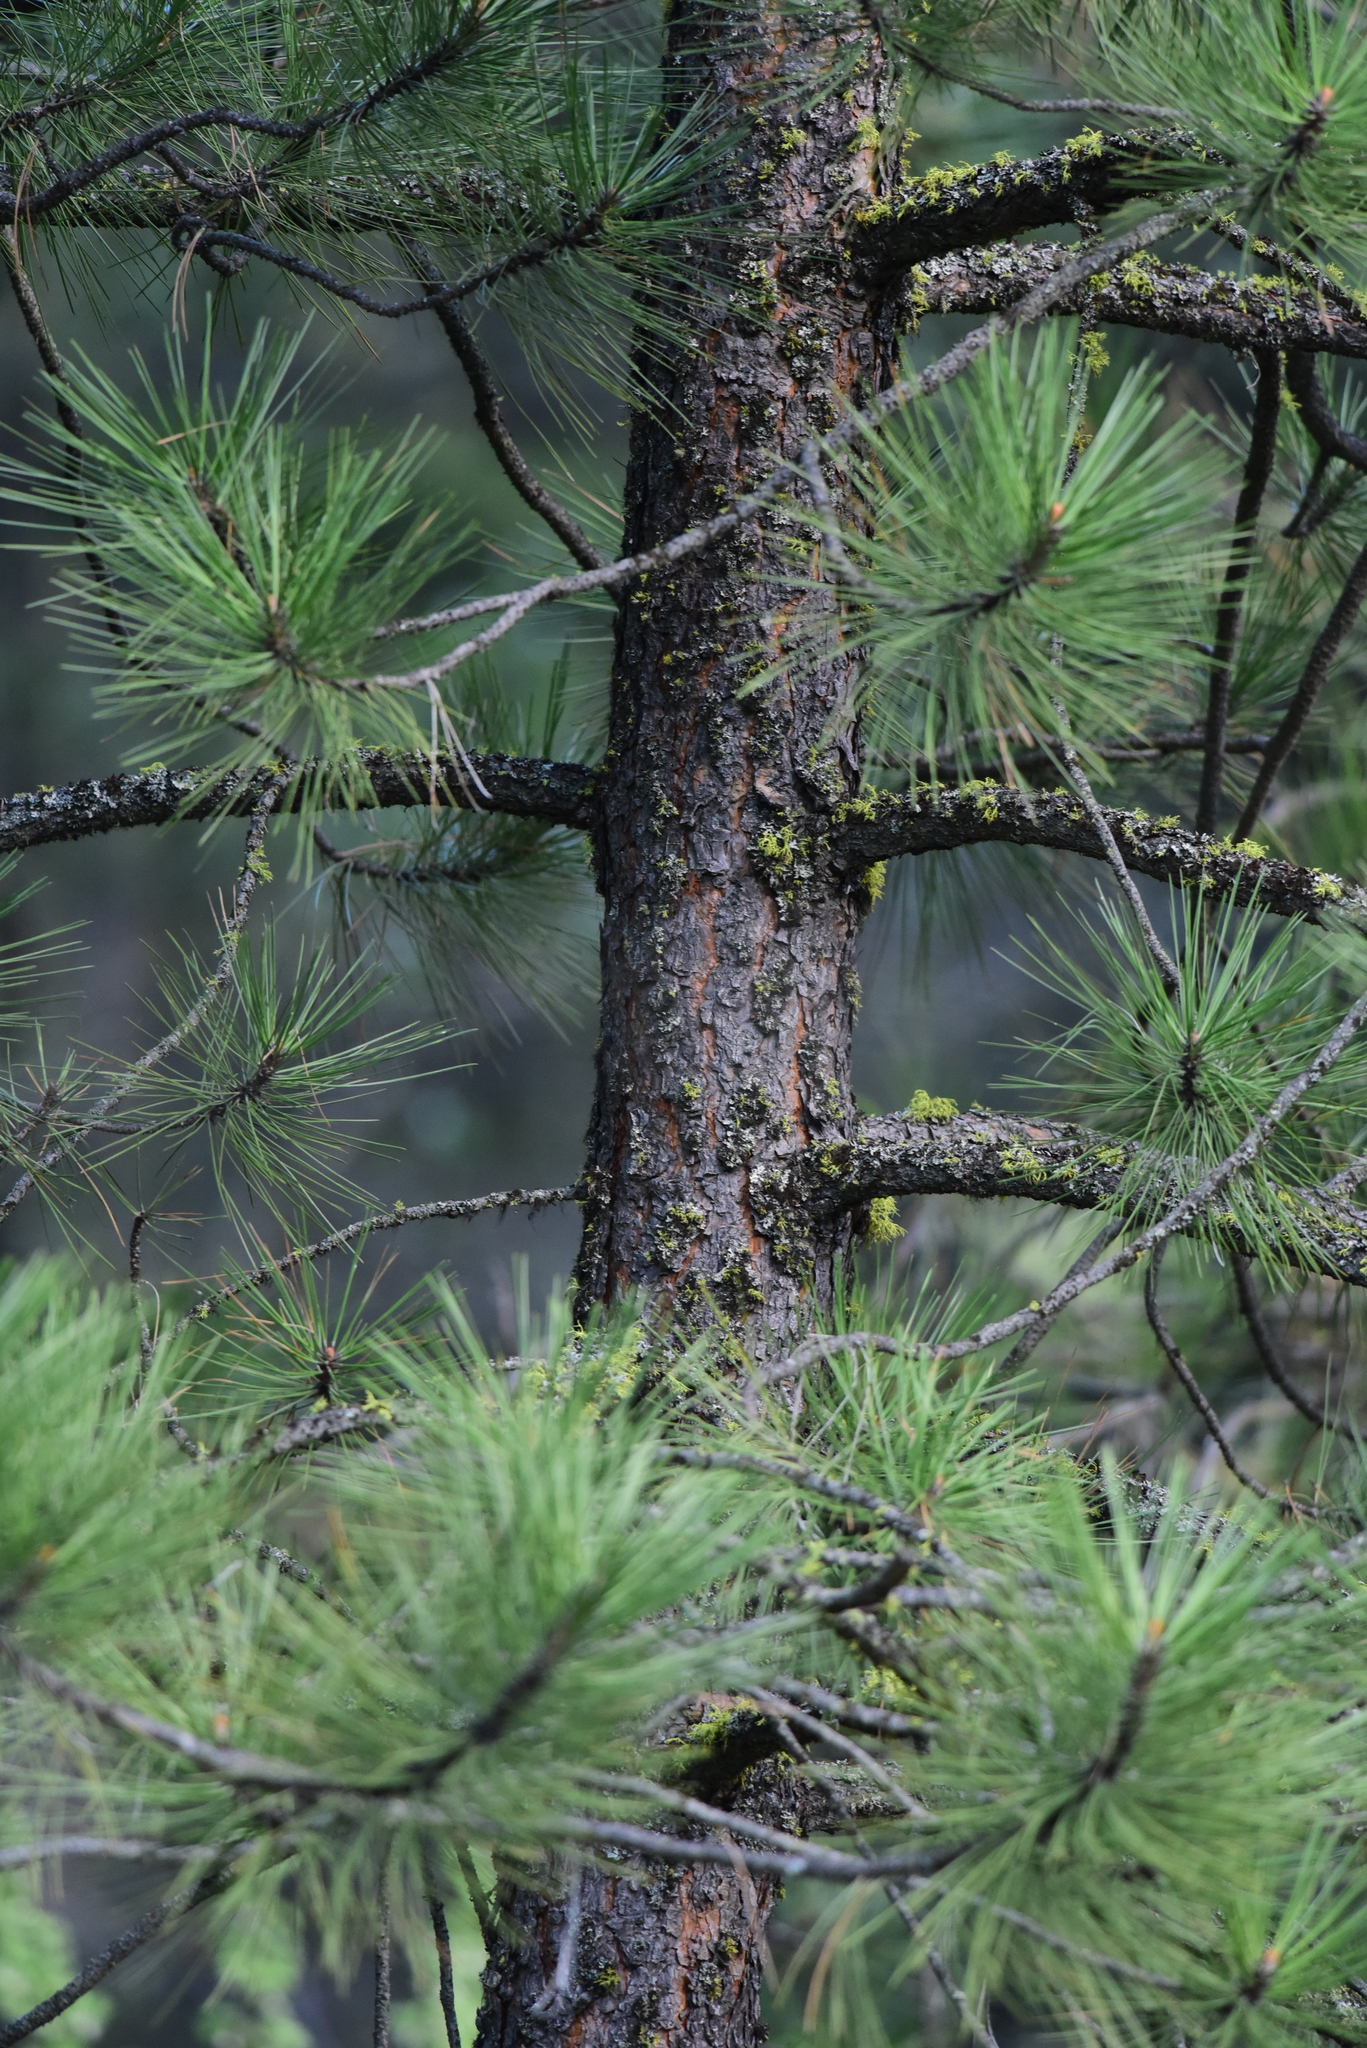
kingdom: Plantae
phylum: Tracheophyta
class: Pinopsida
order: Pinales
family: Pinaceae
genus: Pinus
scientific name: Pinus ponderosa
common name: Western yellow-pine
